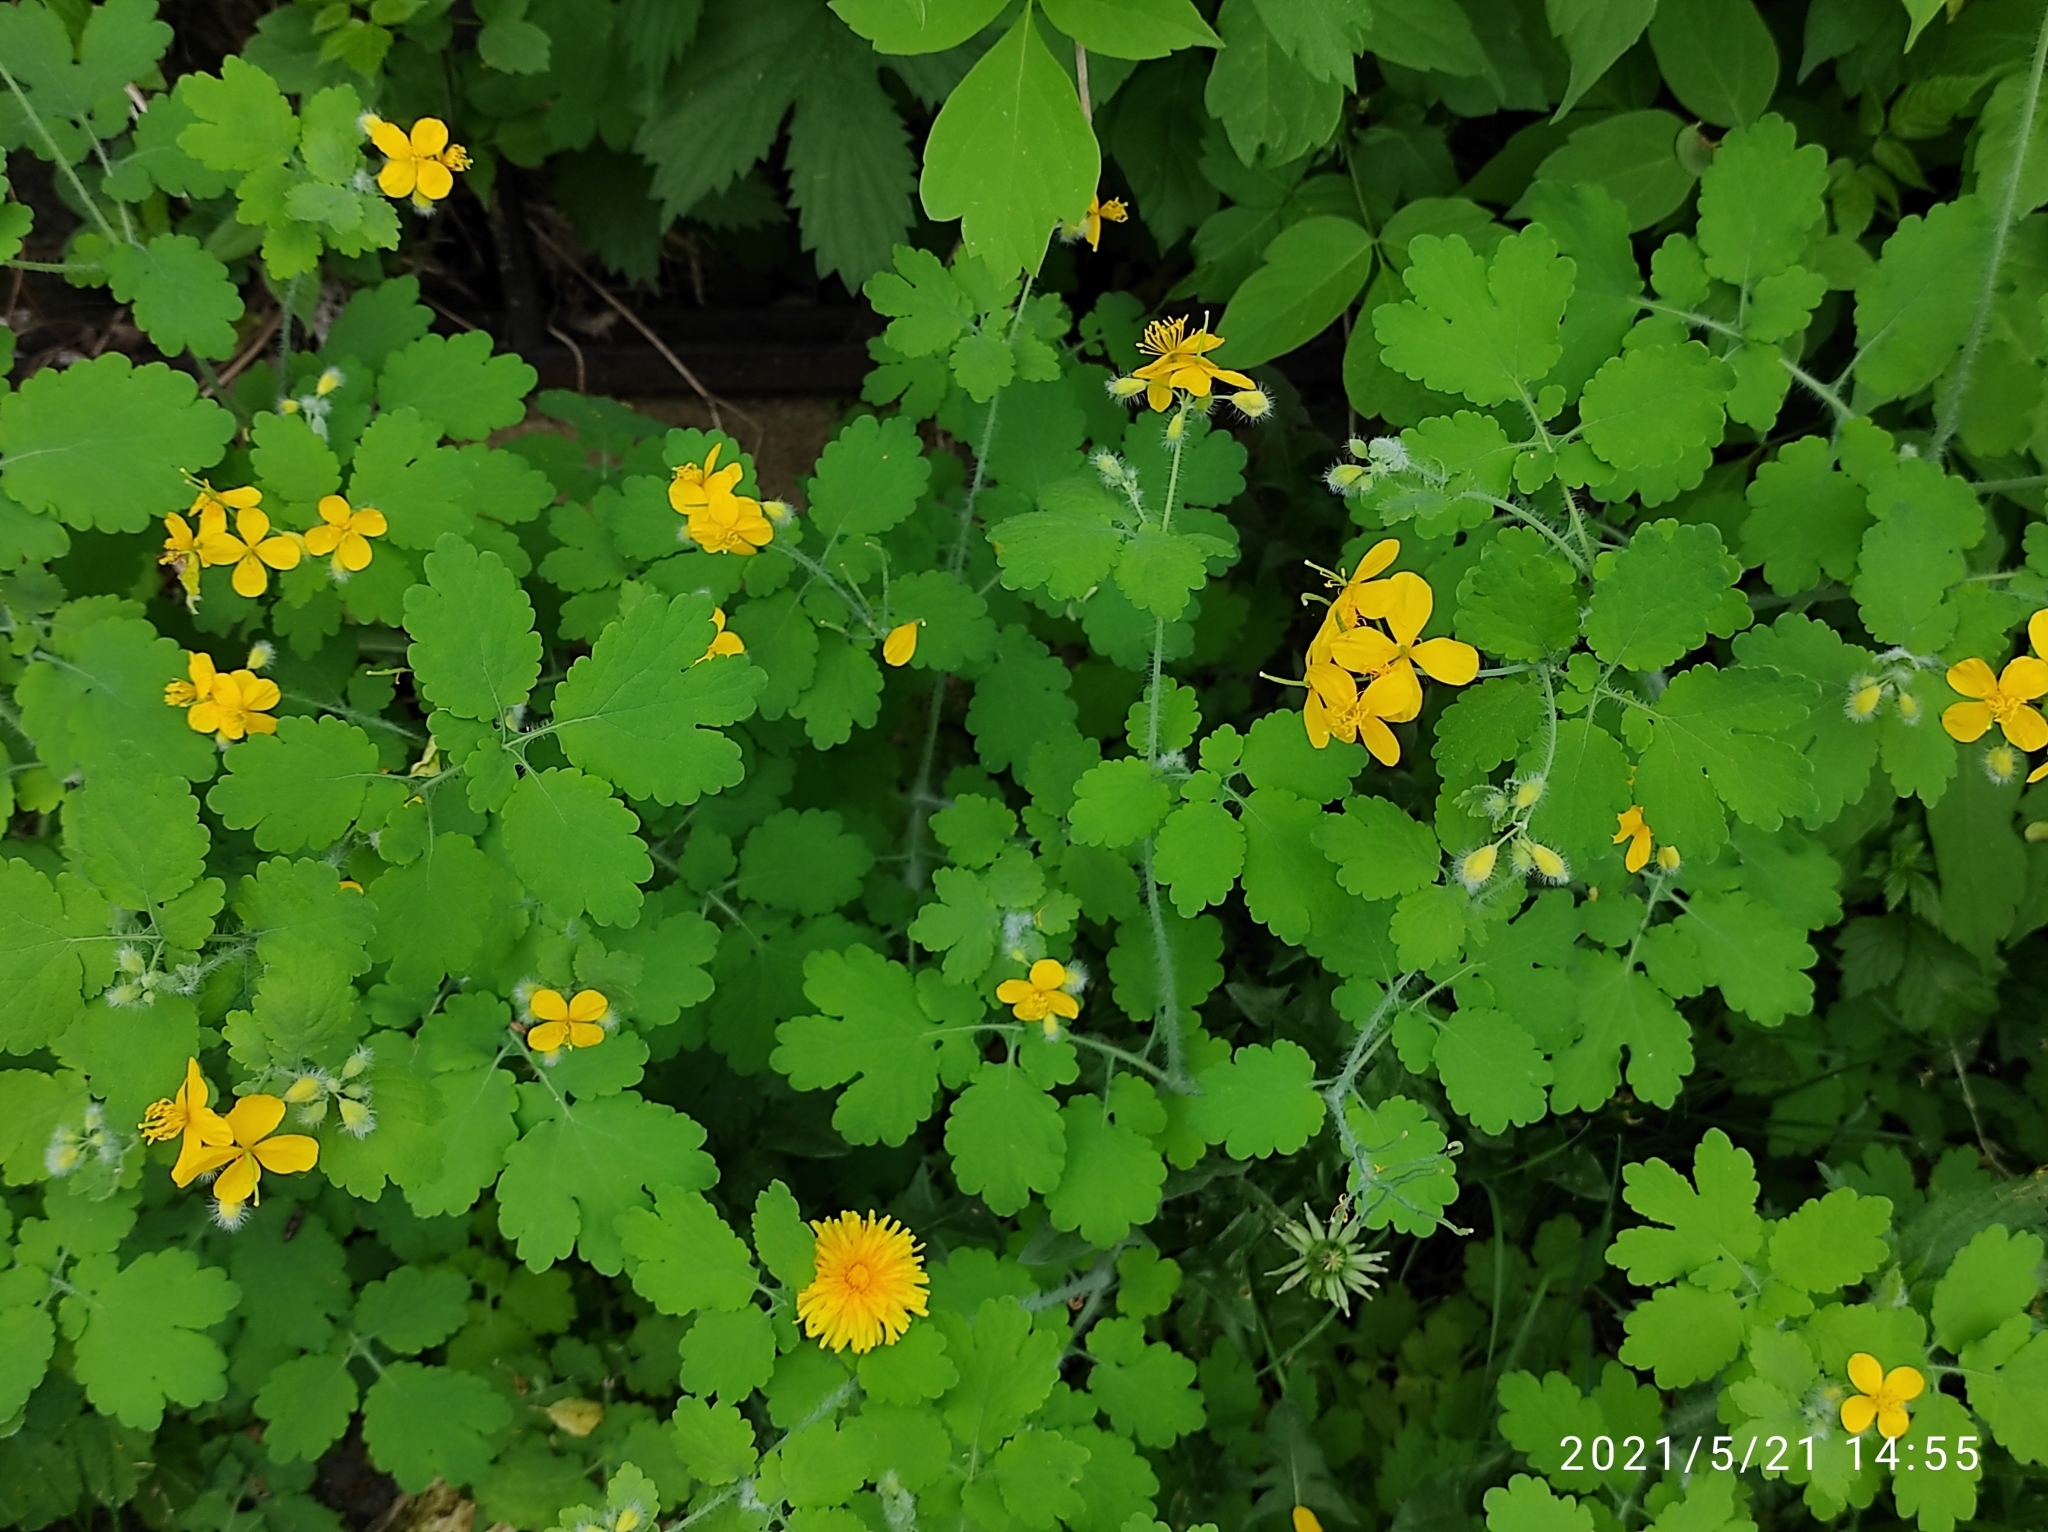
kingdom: Plantae
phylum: Tracheophyta
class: Magnoliopsida
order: Ranunculales
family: Papaveraceae
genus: Chelidonium
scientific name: Chelidonium majus
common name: Greater celandine
